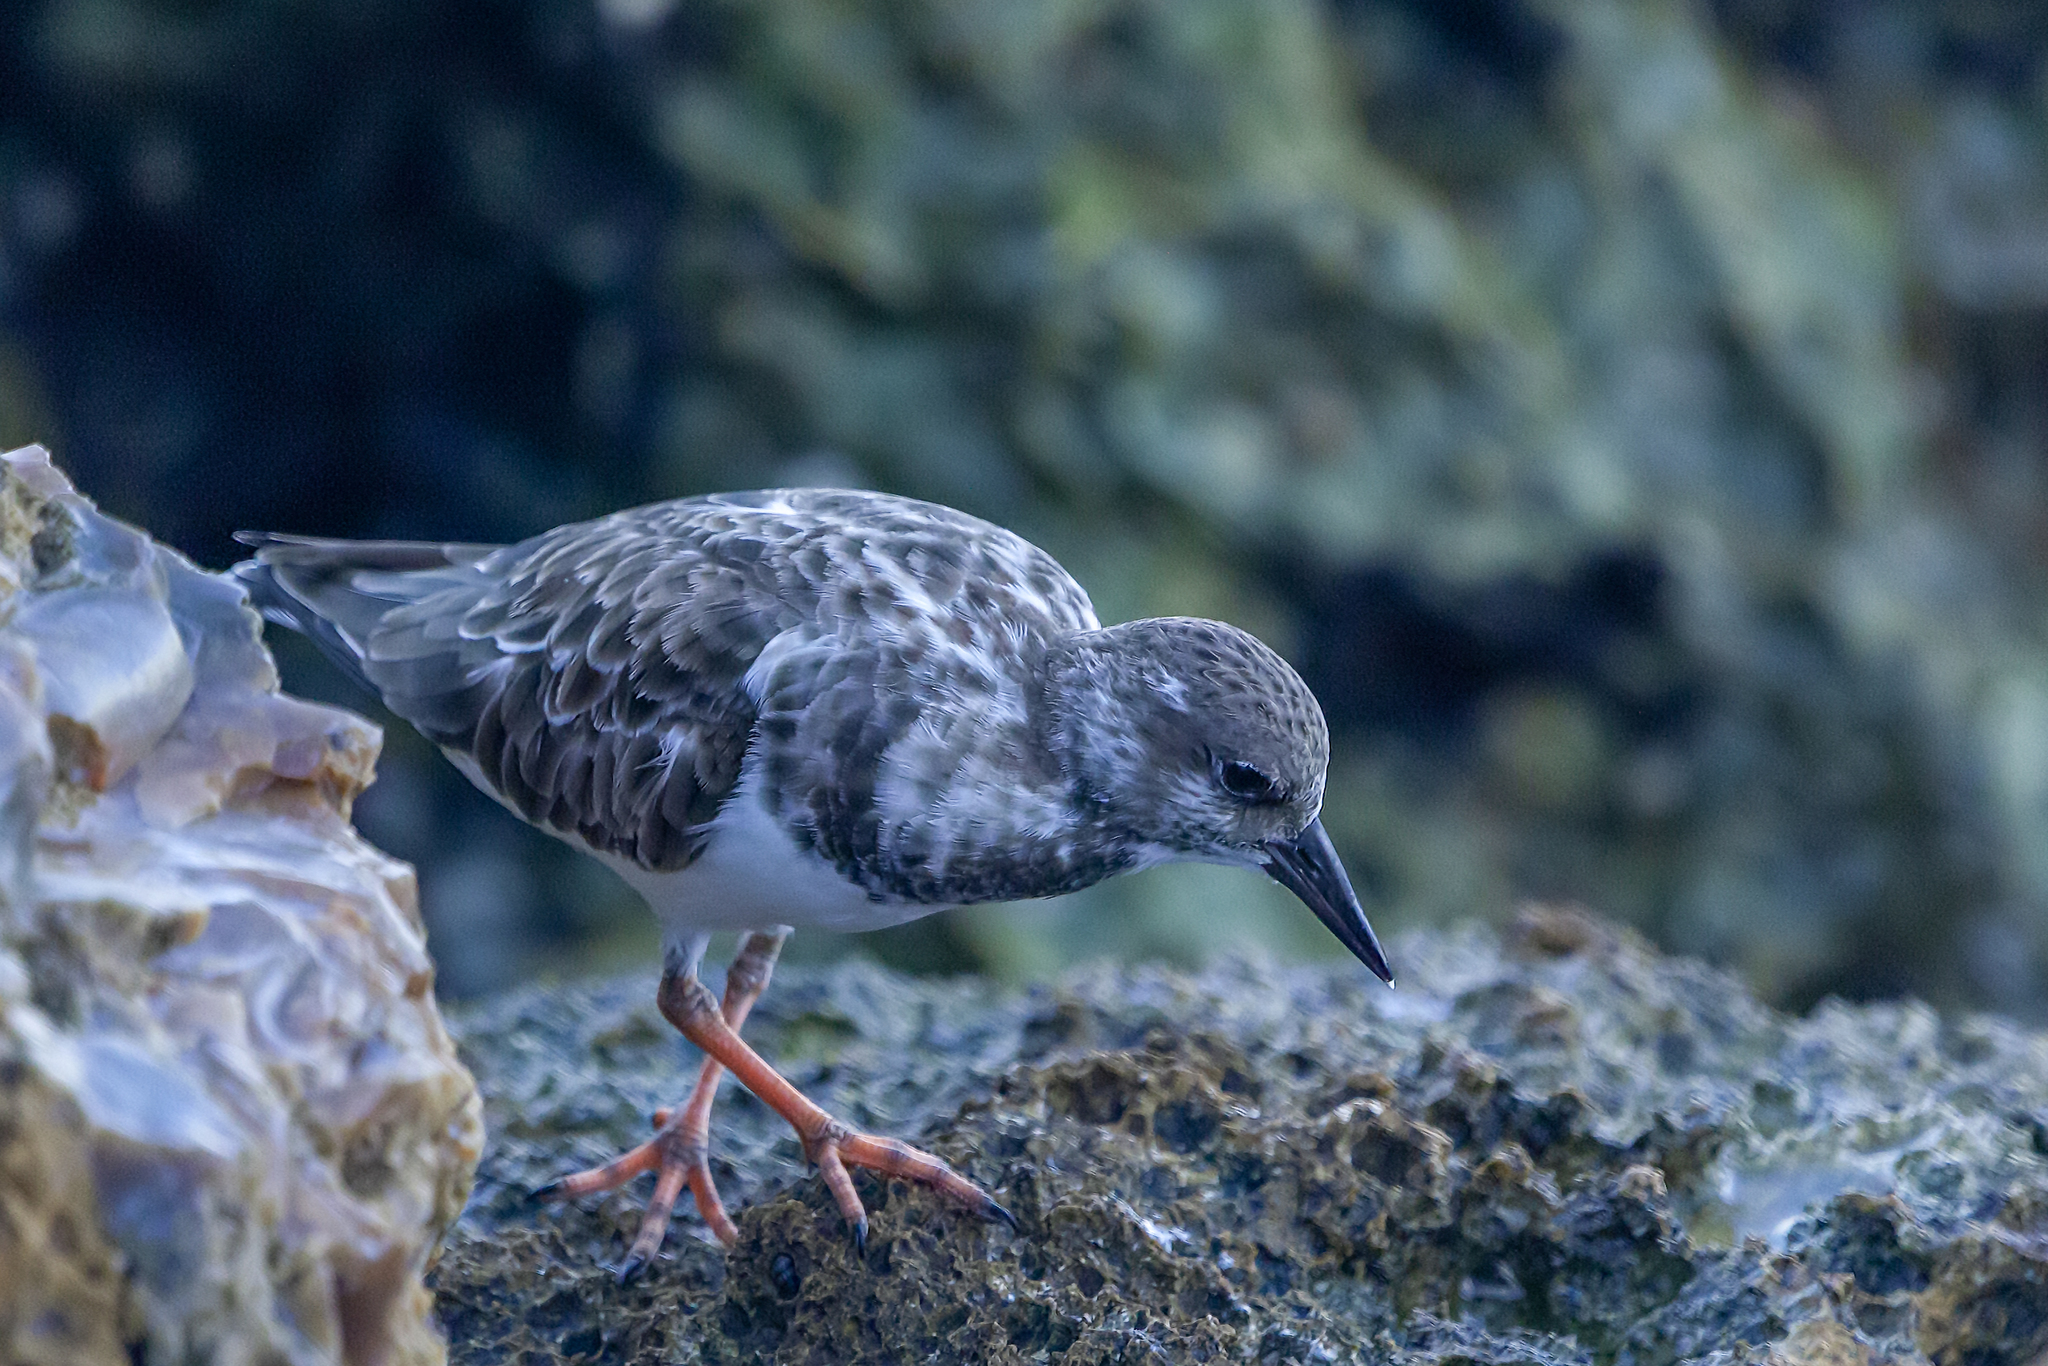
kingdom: Animalia
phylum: Chordata
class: Aves
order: Charadriiformes
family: Scolopacidae
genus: Arenaria
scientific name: Arenaria interpres
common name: Ruddy turnstone
